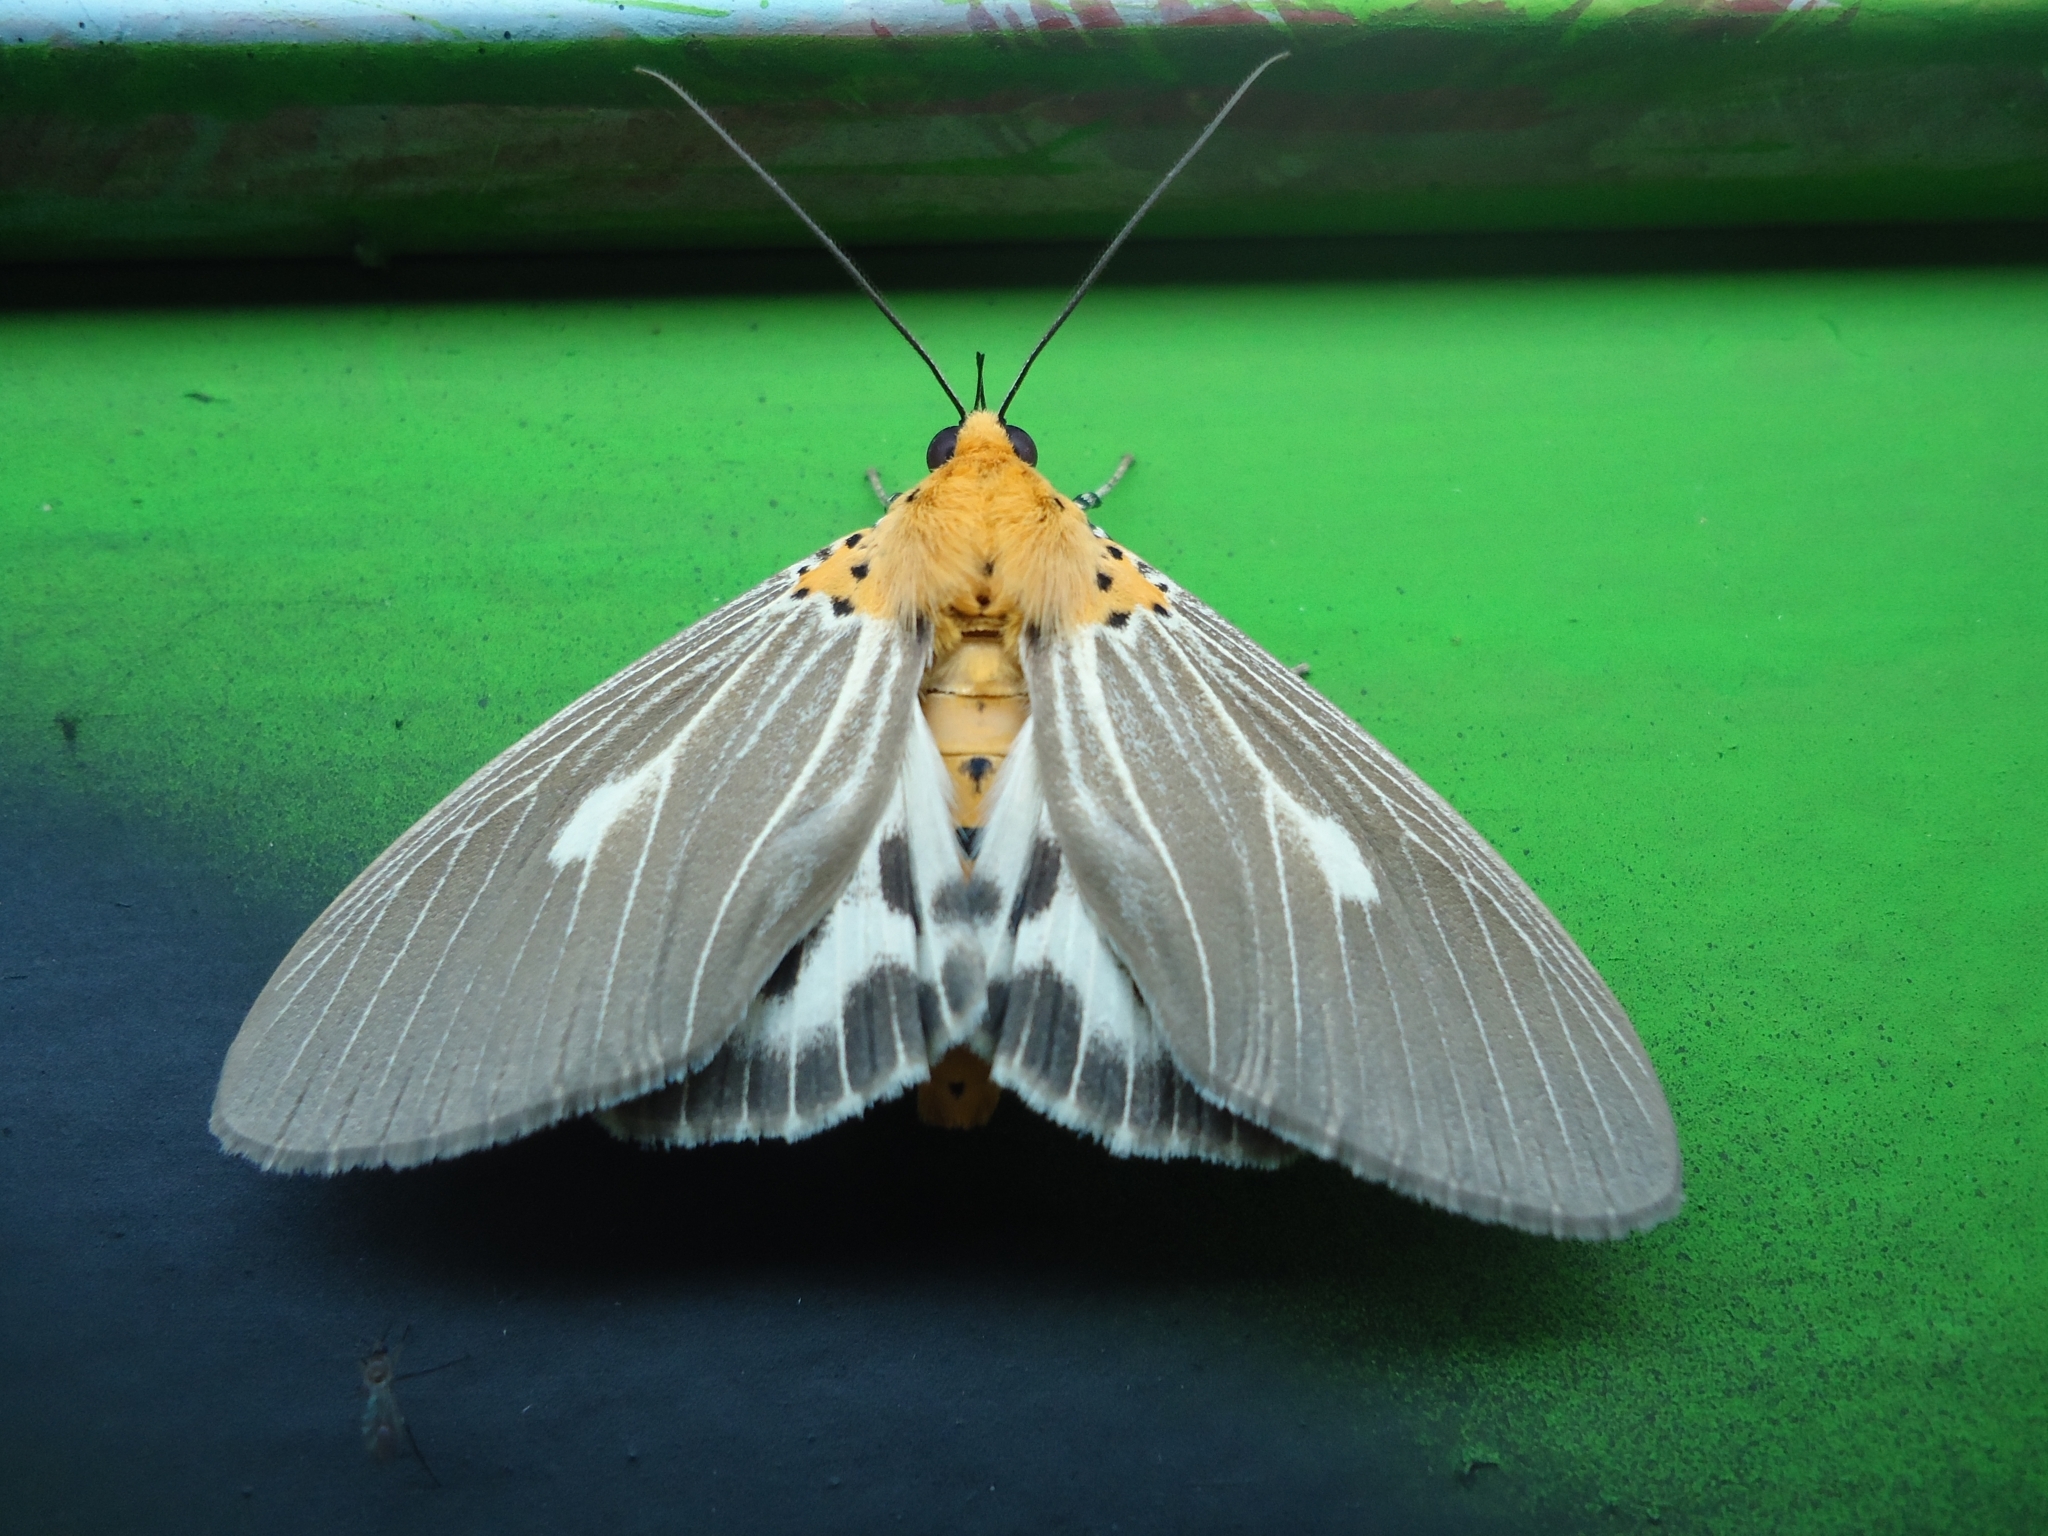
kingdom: Animalia
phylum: Arthropoda
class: Insecta
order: Lepidoptera
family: Erebidae
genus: Asota
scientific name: Asota canaraica
